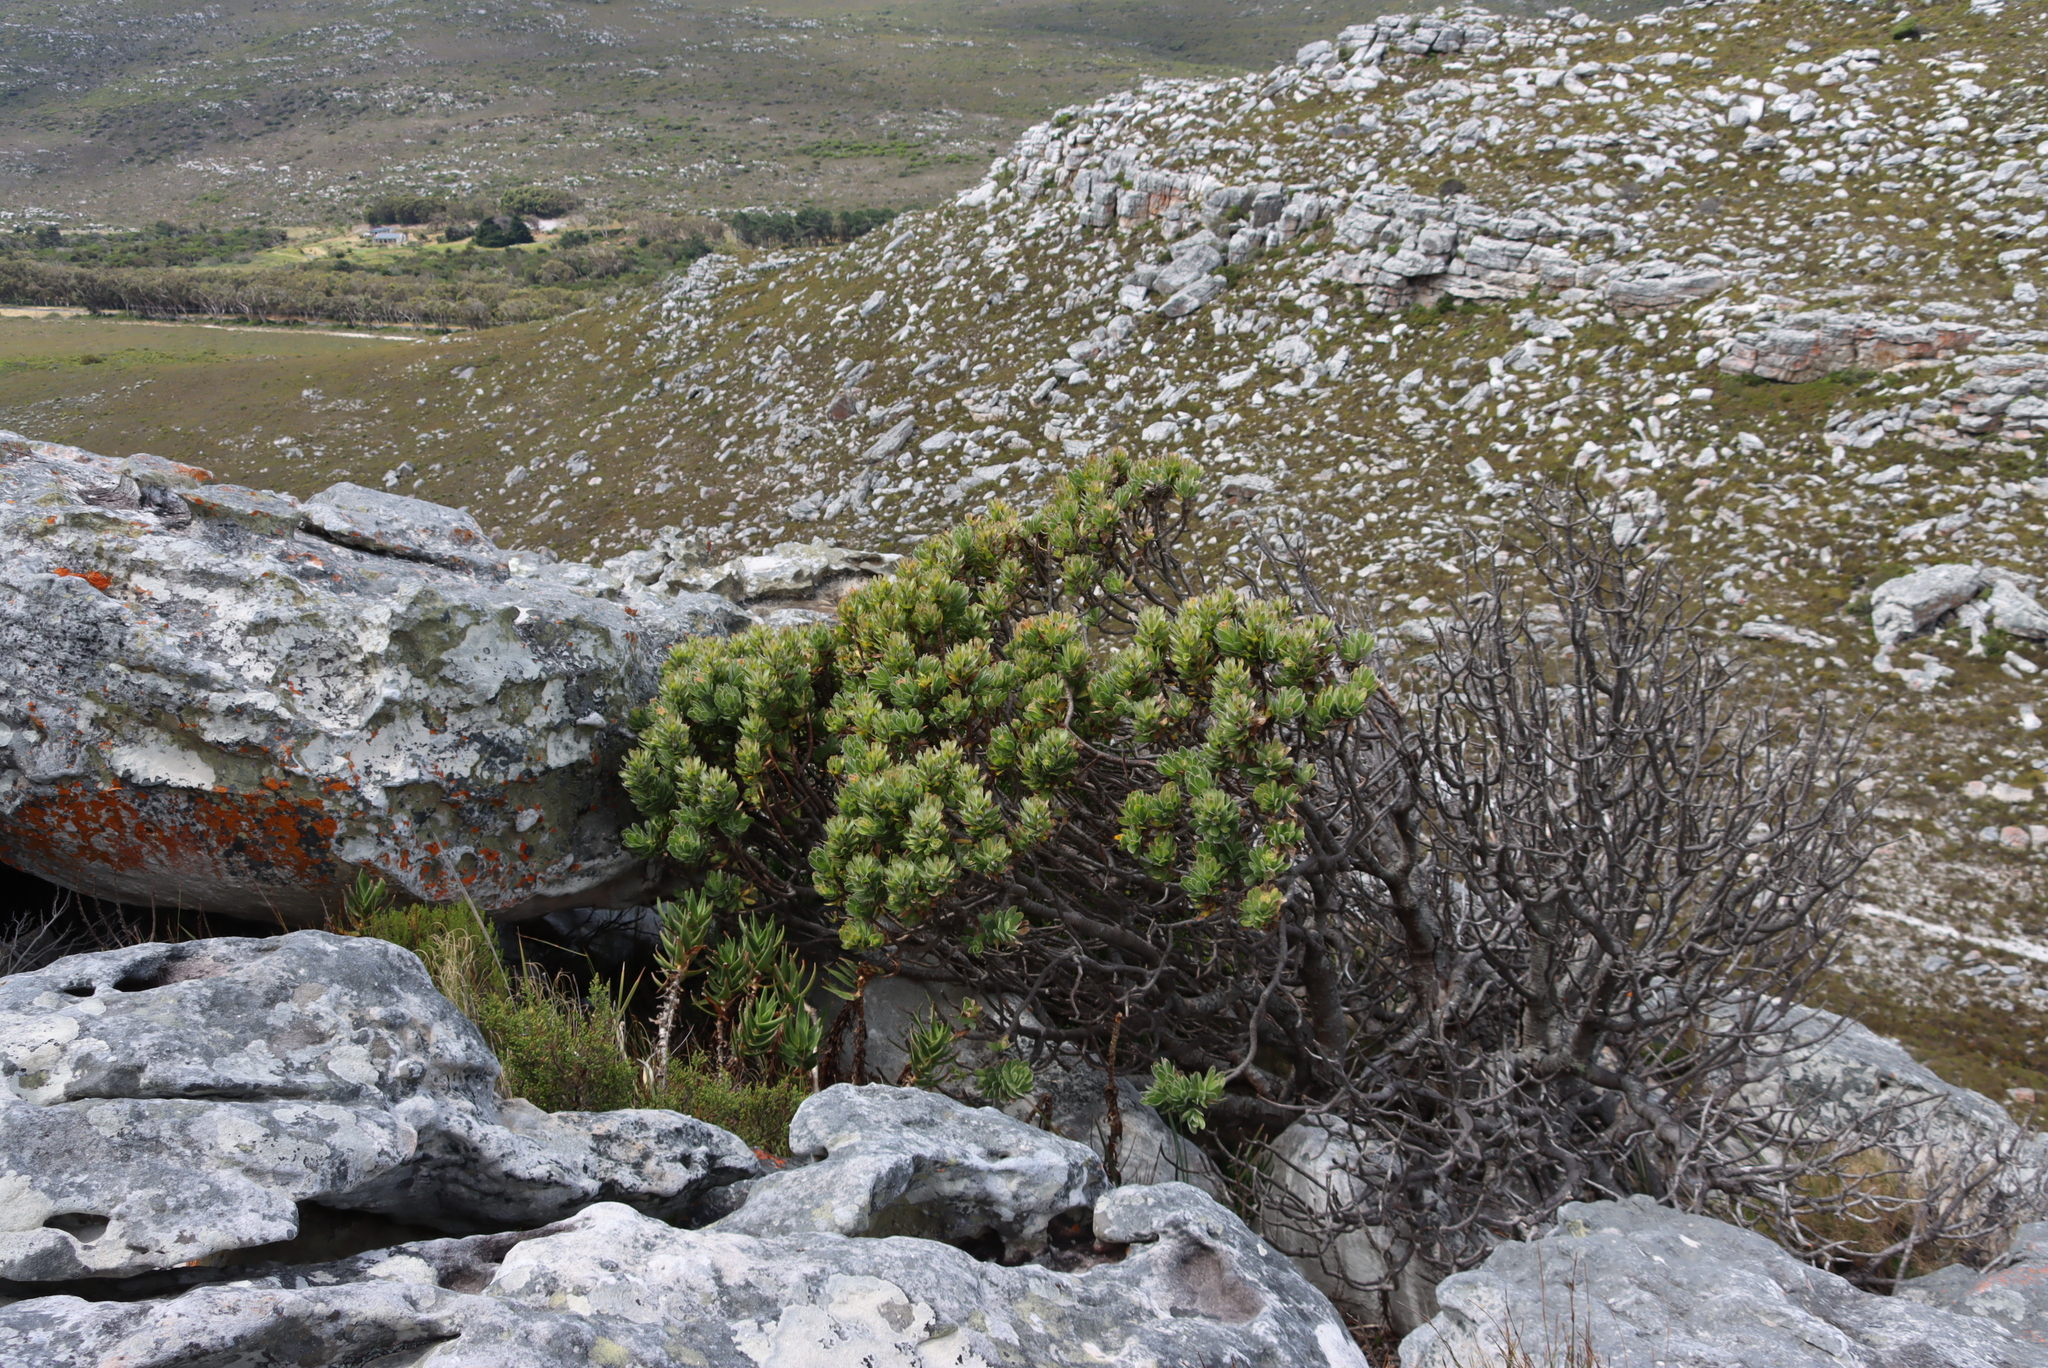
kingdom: Plantae
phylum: Tracheophyta
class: Magnoliopsida
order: Proteales
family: Proteaceae
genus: Mimetes
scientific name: Mimetes fimbriifolius
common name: Fringed bottlebrush
